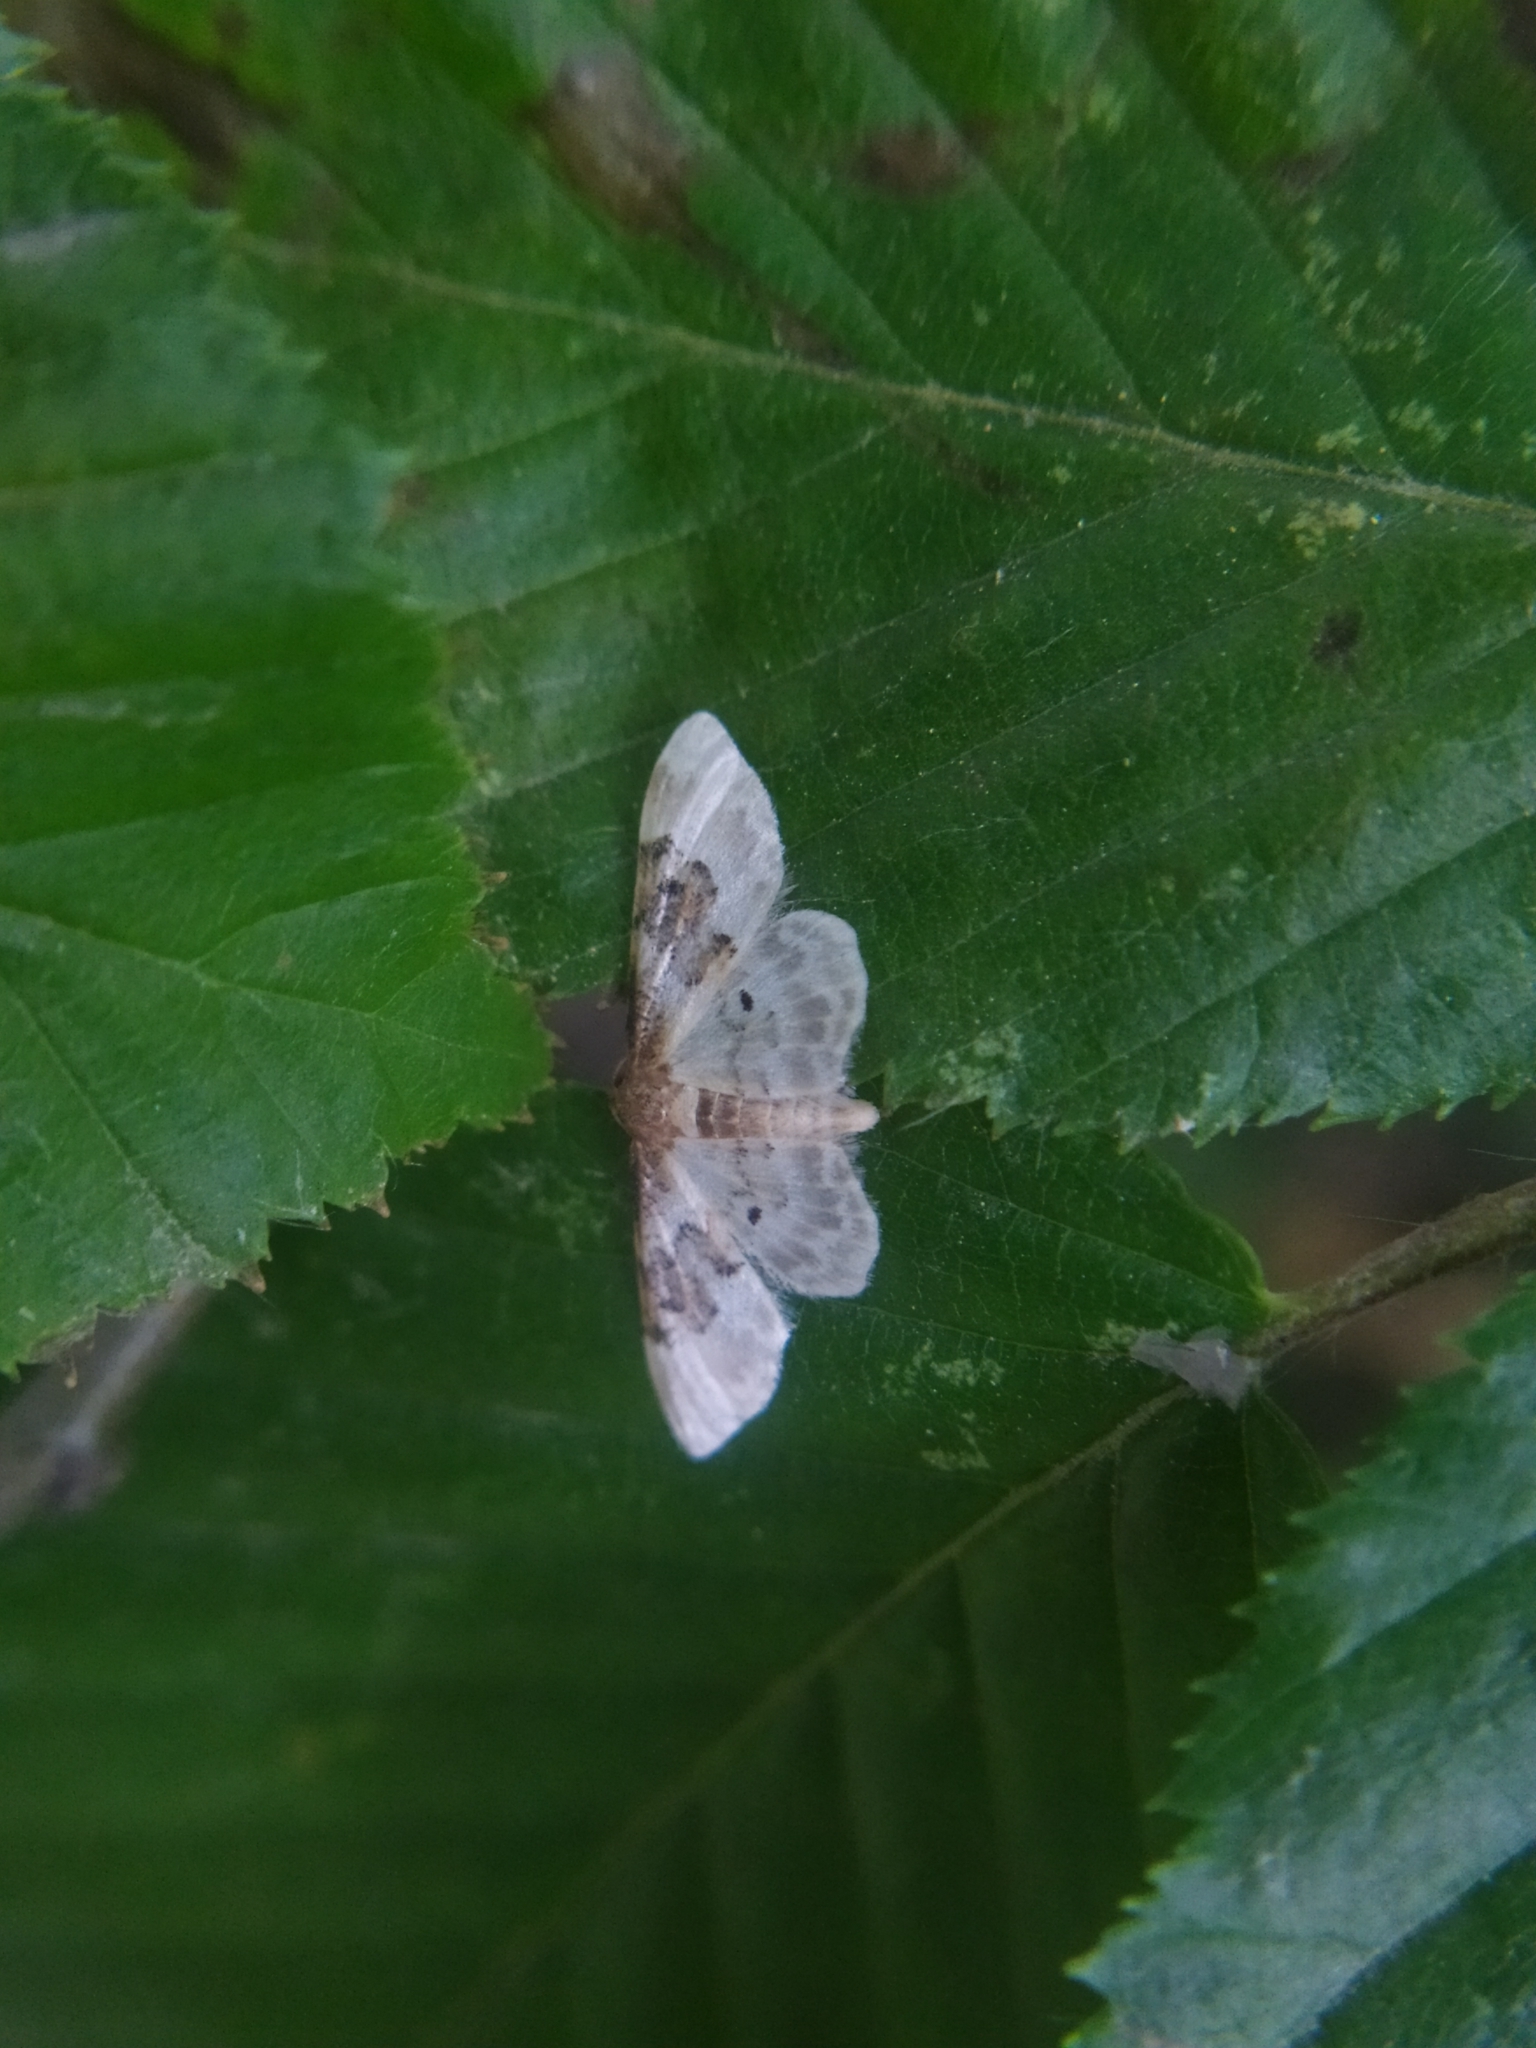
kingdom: Animalia
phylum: Arthropoda
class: Insecta
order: Lepidoptera
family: Geometridae
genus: Idaea
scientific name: Idaea rusticata
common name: Least carpet
